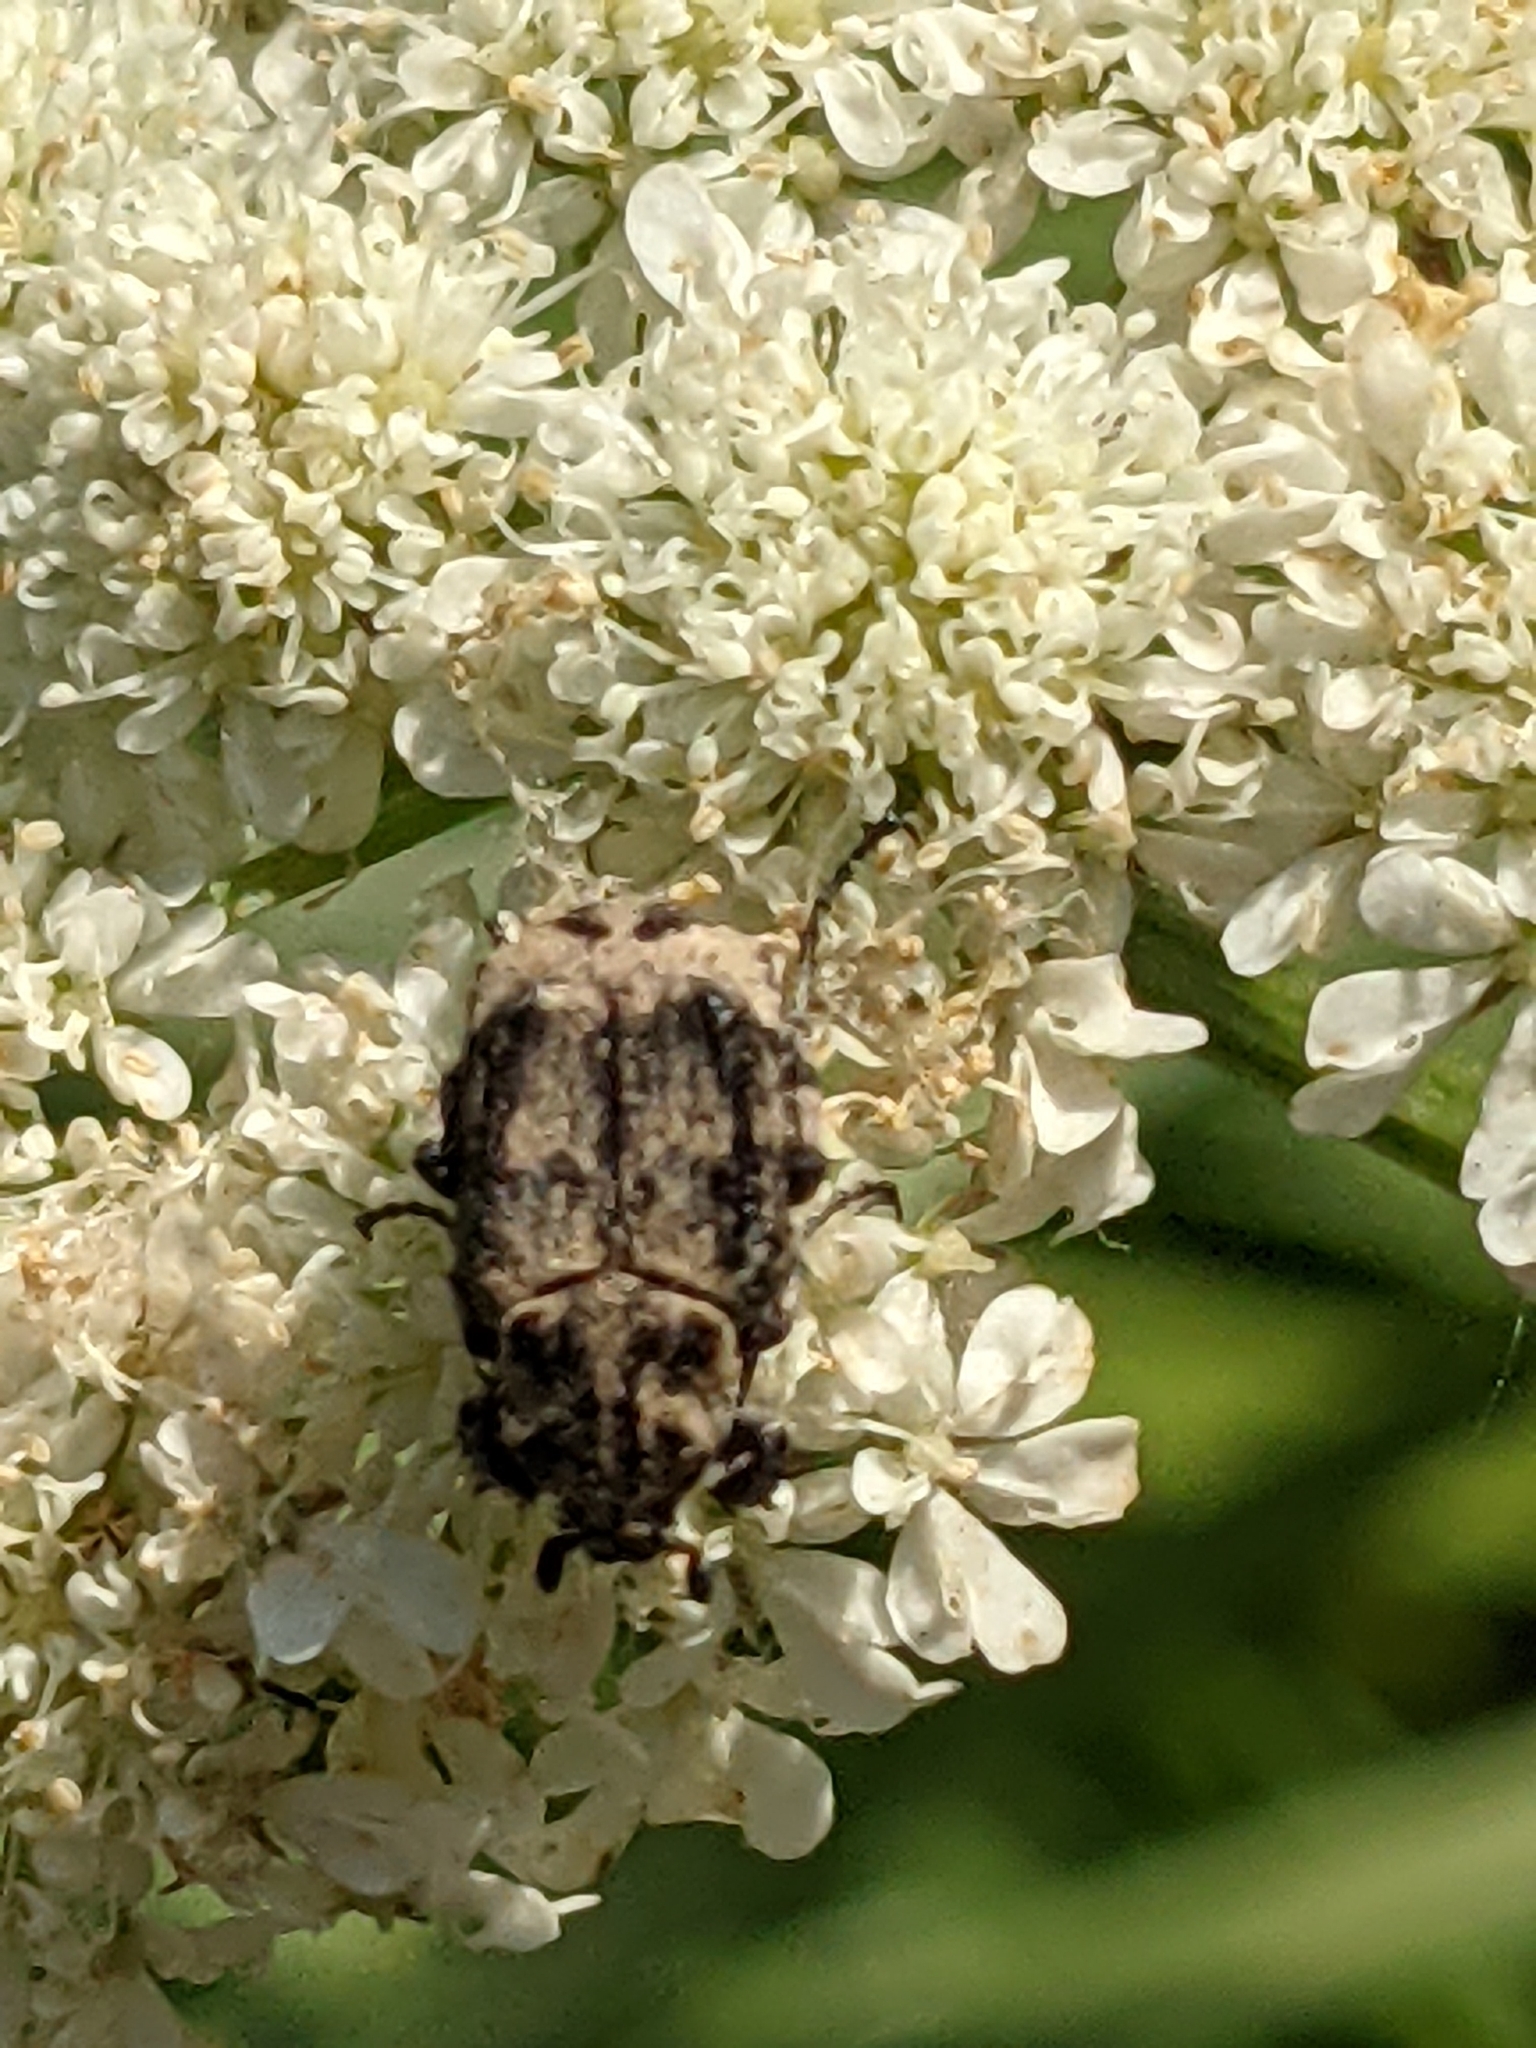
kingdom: Animalia
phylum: Arthropoda
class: Insecta
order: Coleoptera
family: Scarabaeidae
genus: Valgus
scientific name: Valgus hemipterus
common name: Bug flower chafer
